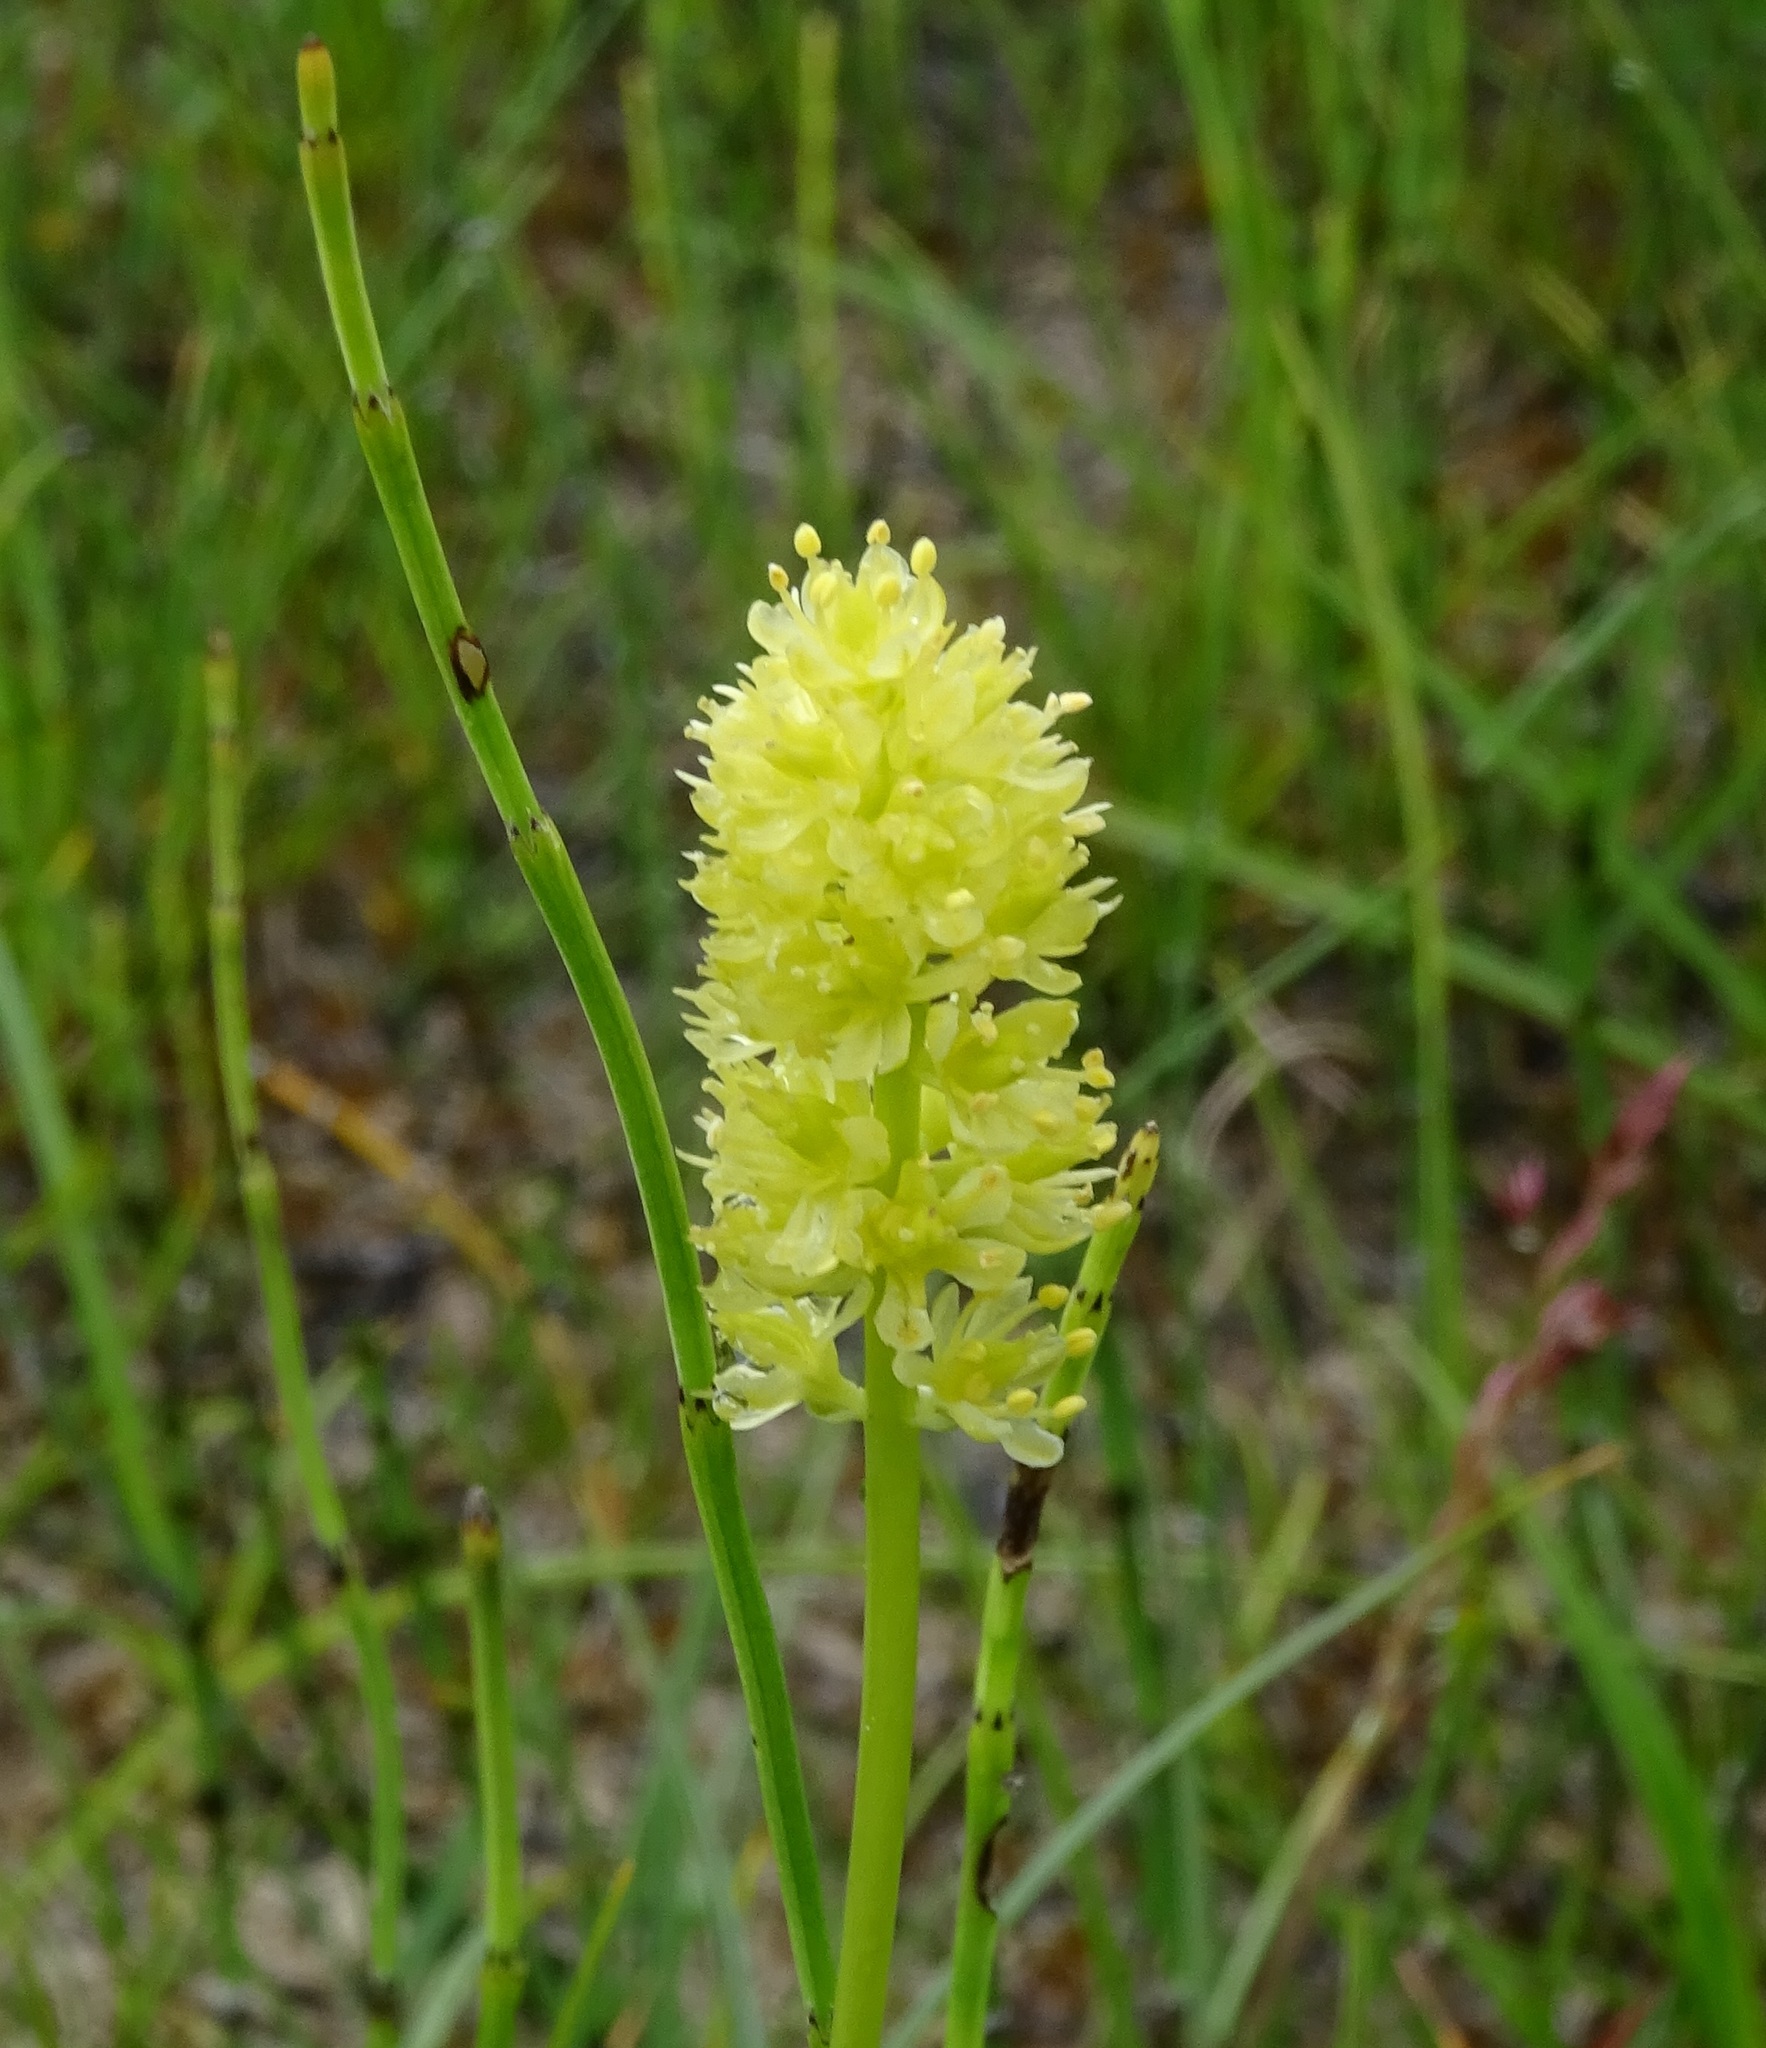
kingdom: Plantae
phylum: Tracheophyta
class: Liliopsida
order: Alismatales
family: Tofieldiaceae
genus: Tofieldia
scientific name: Tofieldia calyculata
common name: German-asphodel
